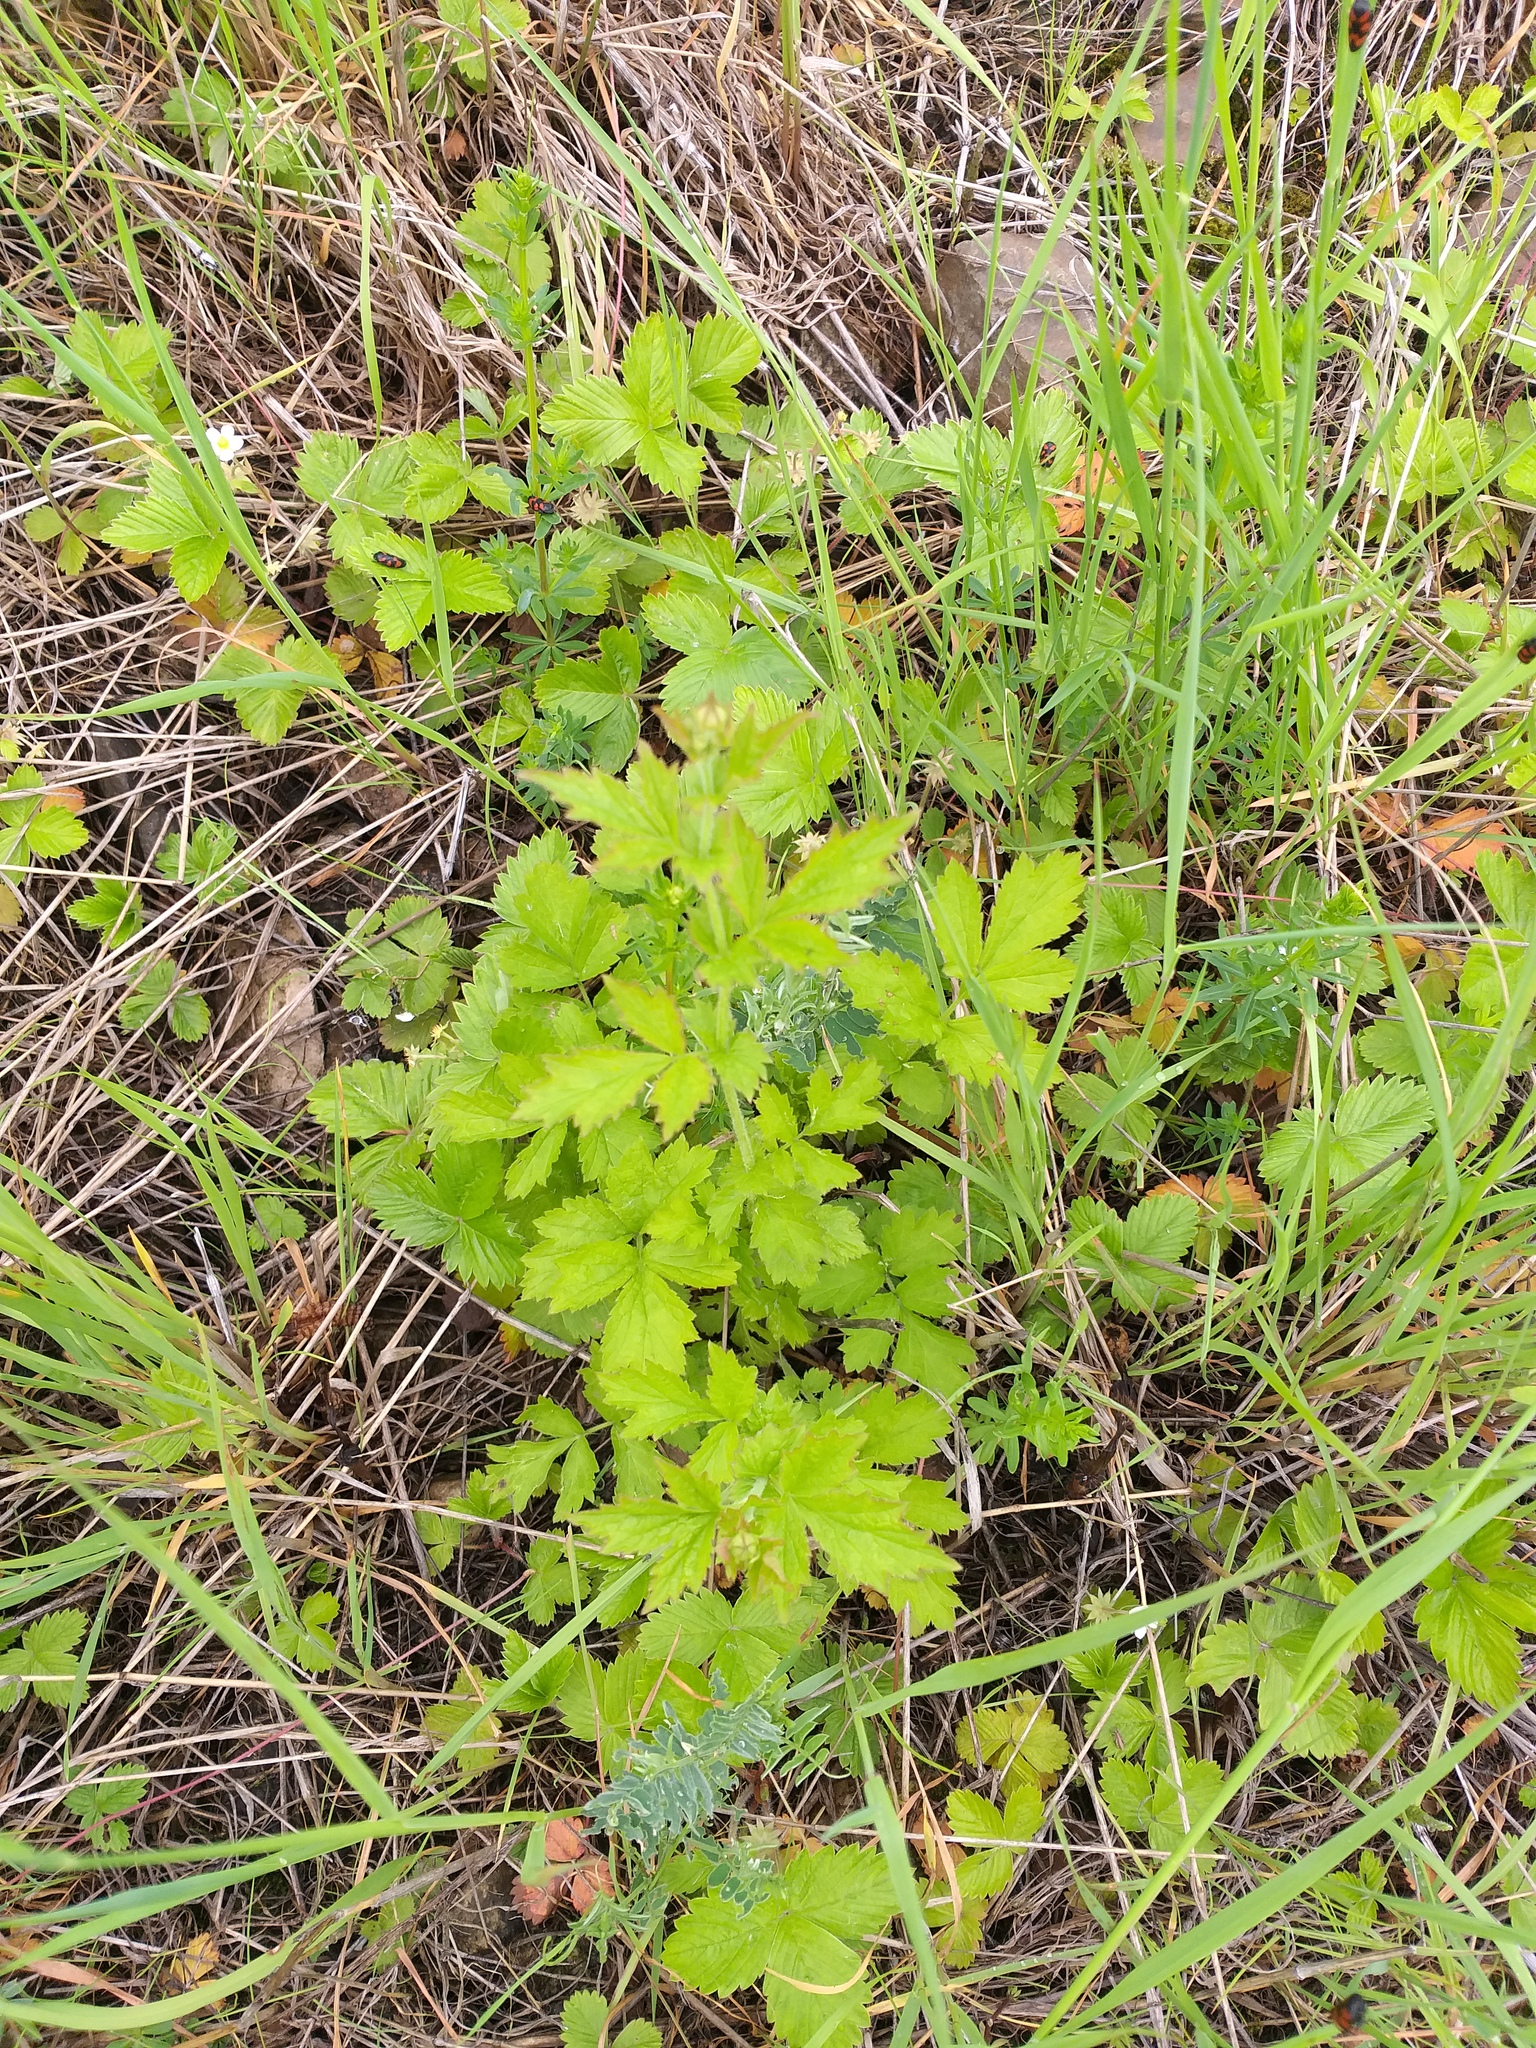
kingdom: Plantae
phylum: Tracheophyta
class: Magnoliopsida
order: Rosales
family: Rosaceae
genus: Geum
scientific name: Geum urbanum
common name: Wood avens
